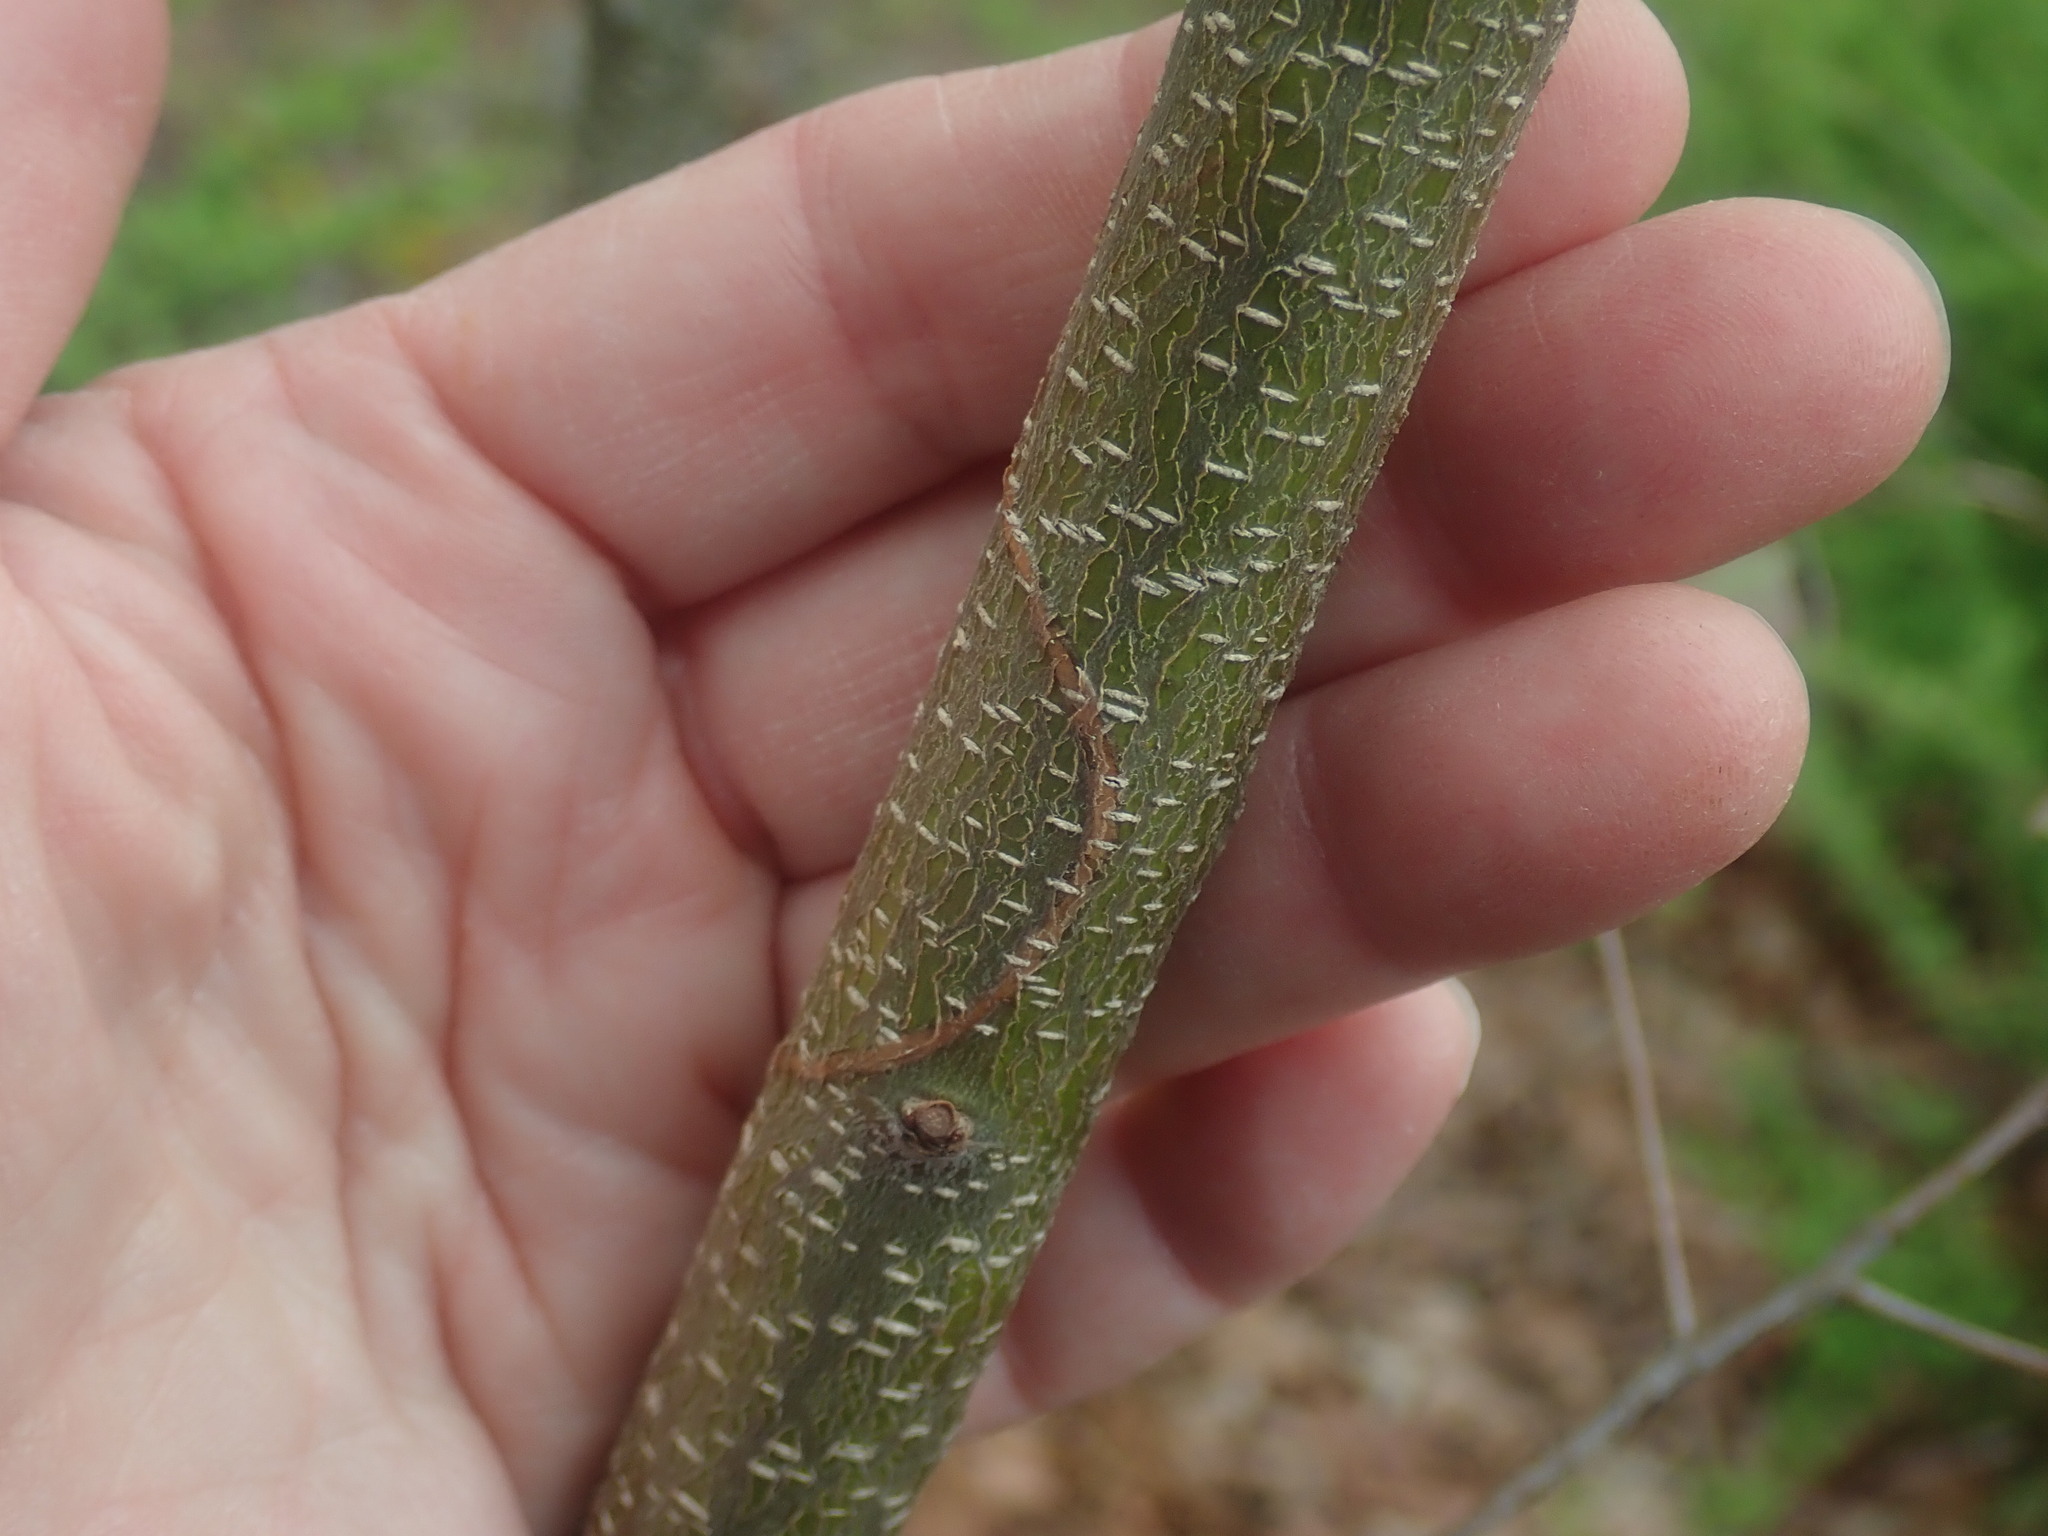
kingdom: Animalia
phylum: Arthropoda
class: Insecta
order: Lepidoptera
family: Gracillariidae
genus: Marmara
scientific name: Marmara serotinella
